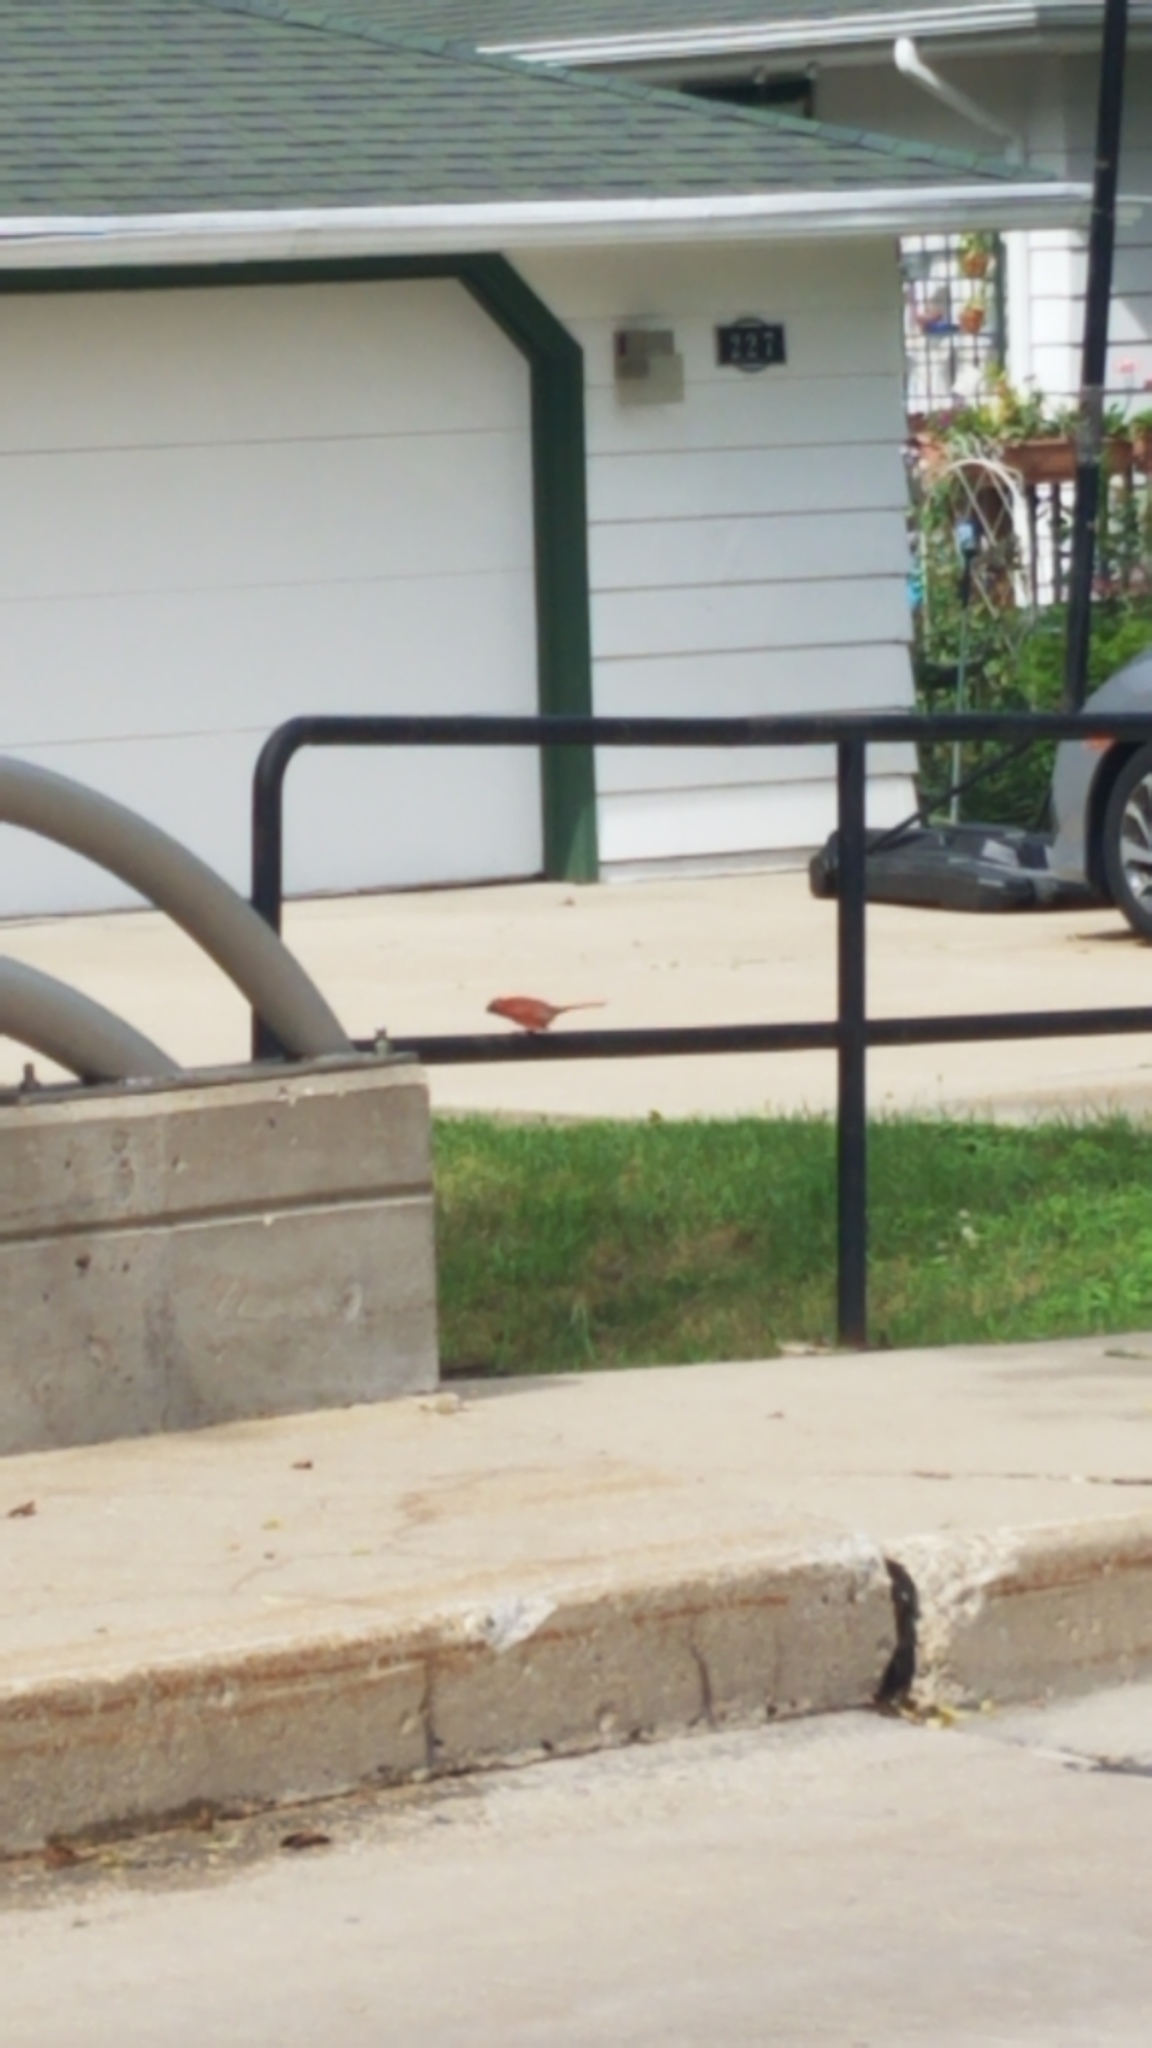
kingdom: Animalia
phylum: Chordata
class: Aves
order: Passeriformes
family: Cardinalidae
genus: Cardinalis
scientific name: Cardinalis cardinalis
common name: Northern cardinal
